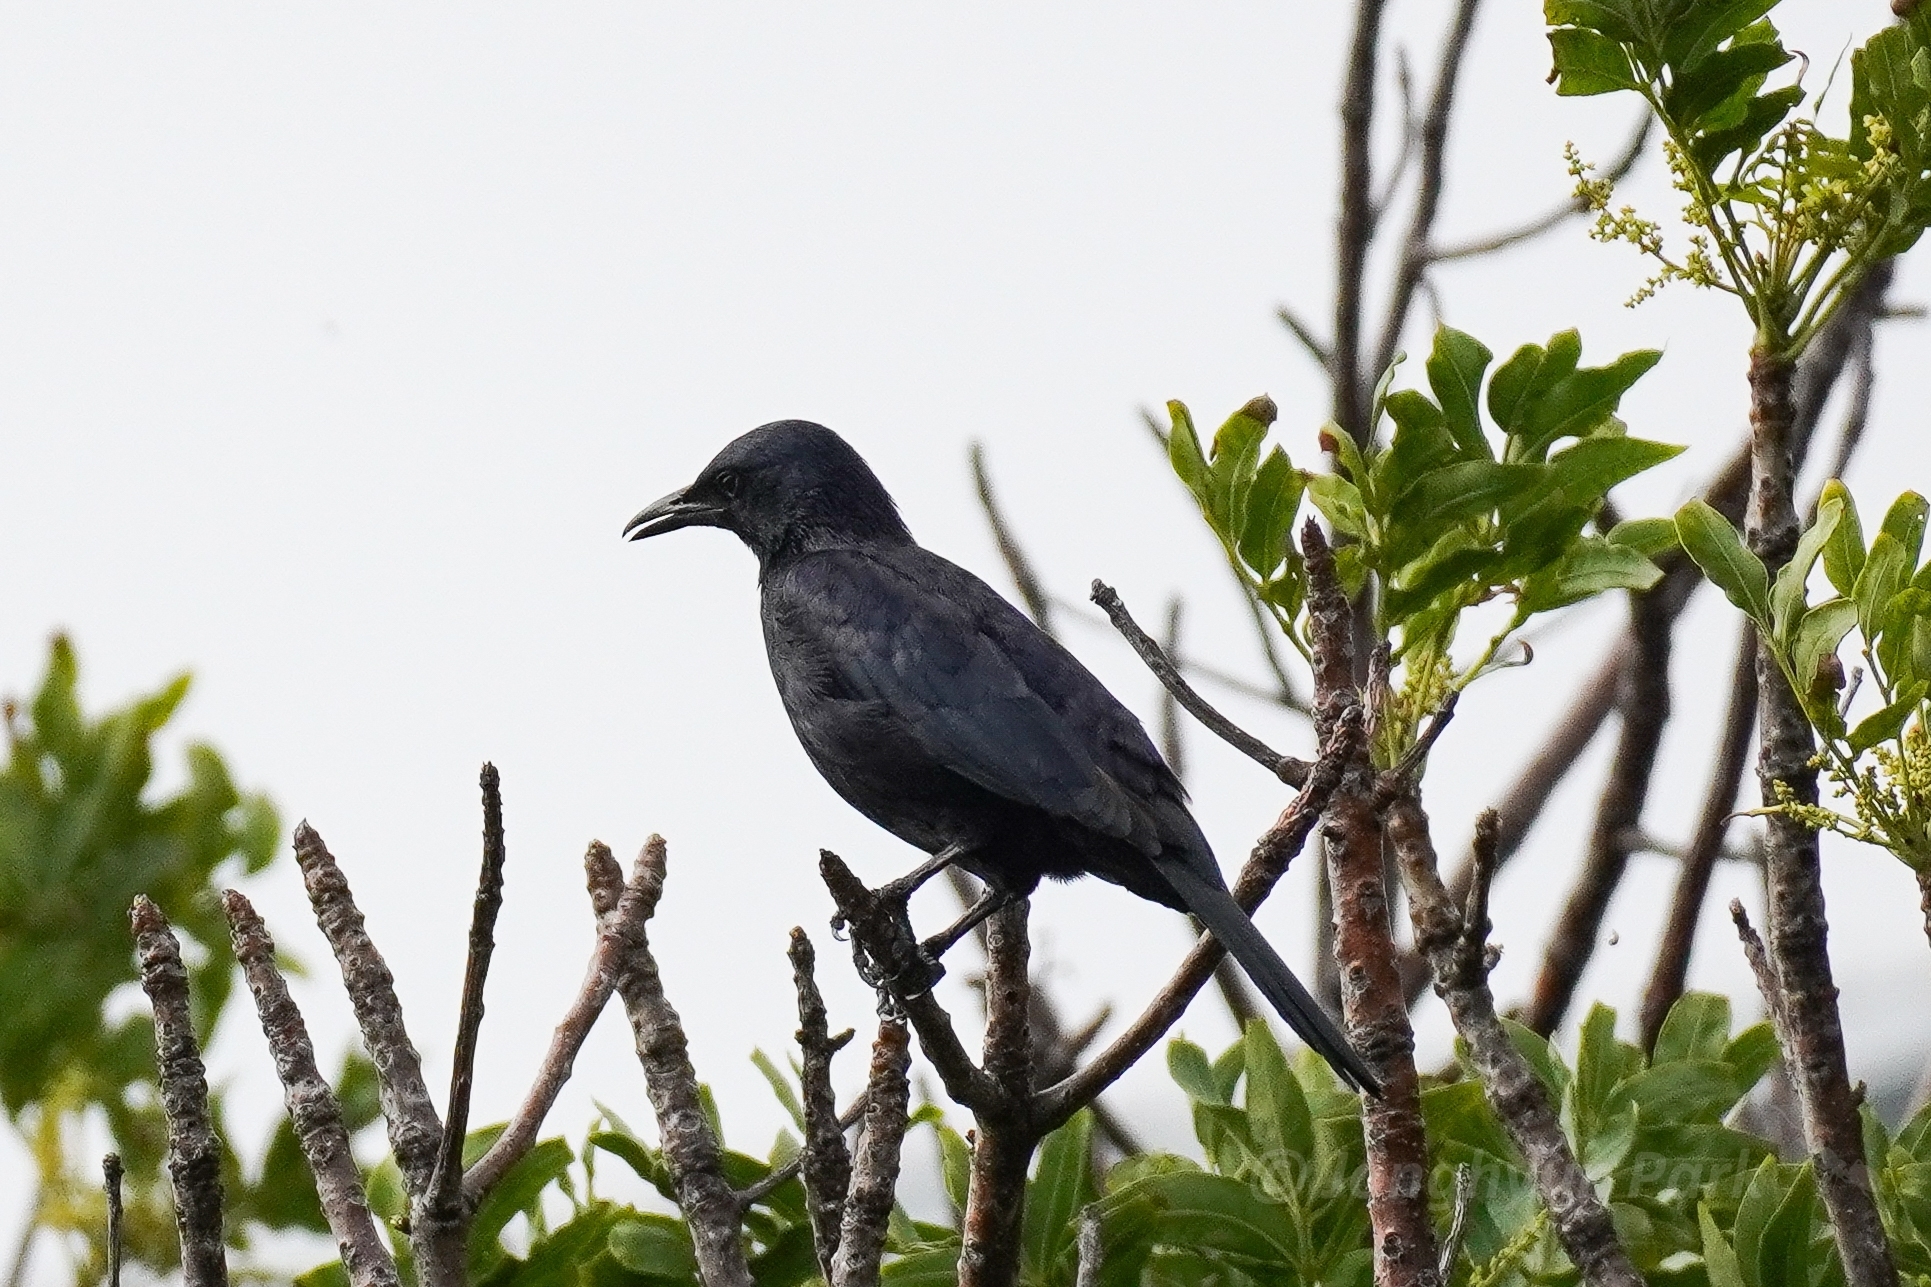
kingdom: Animalia
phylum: Chordata
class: Aves
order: Passeriformes
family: Sturnidae
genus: Onychognathus
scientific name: Onychognathus morio
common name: Red-winged starling
